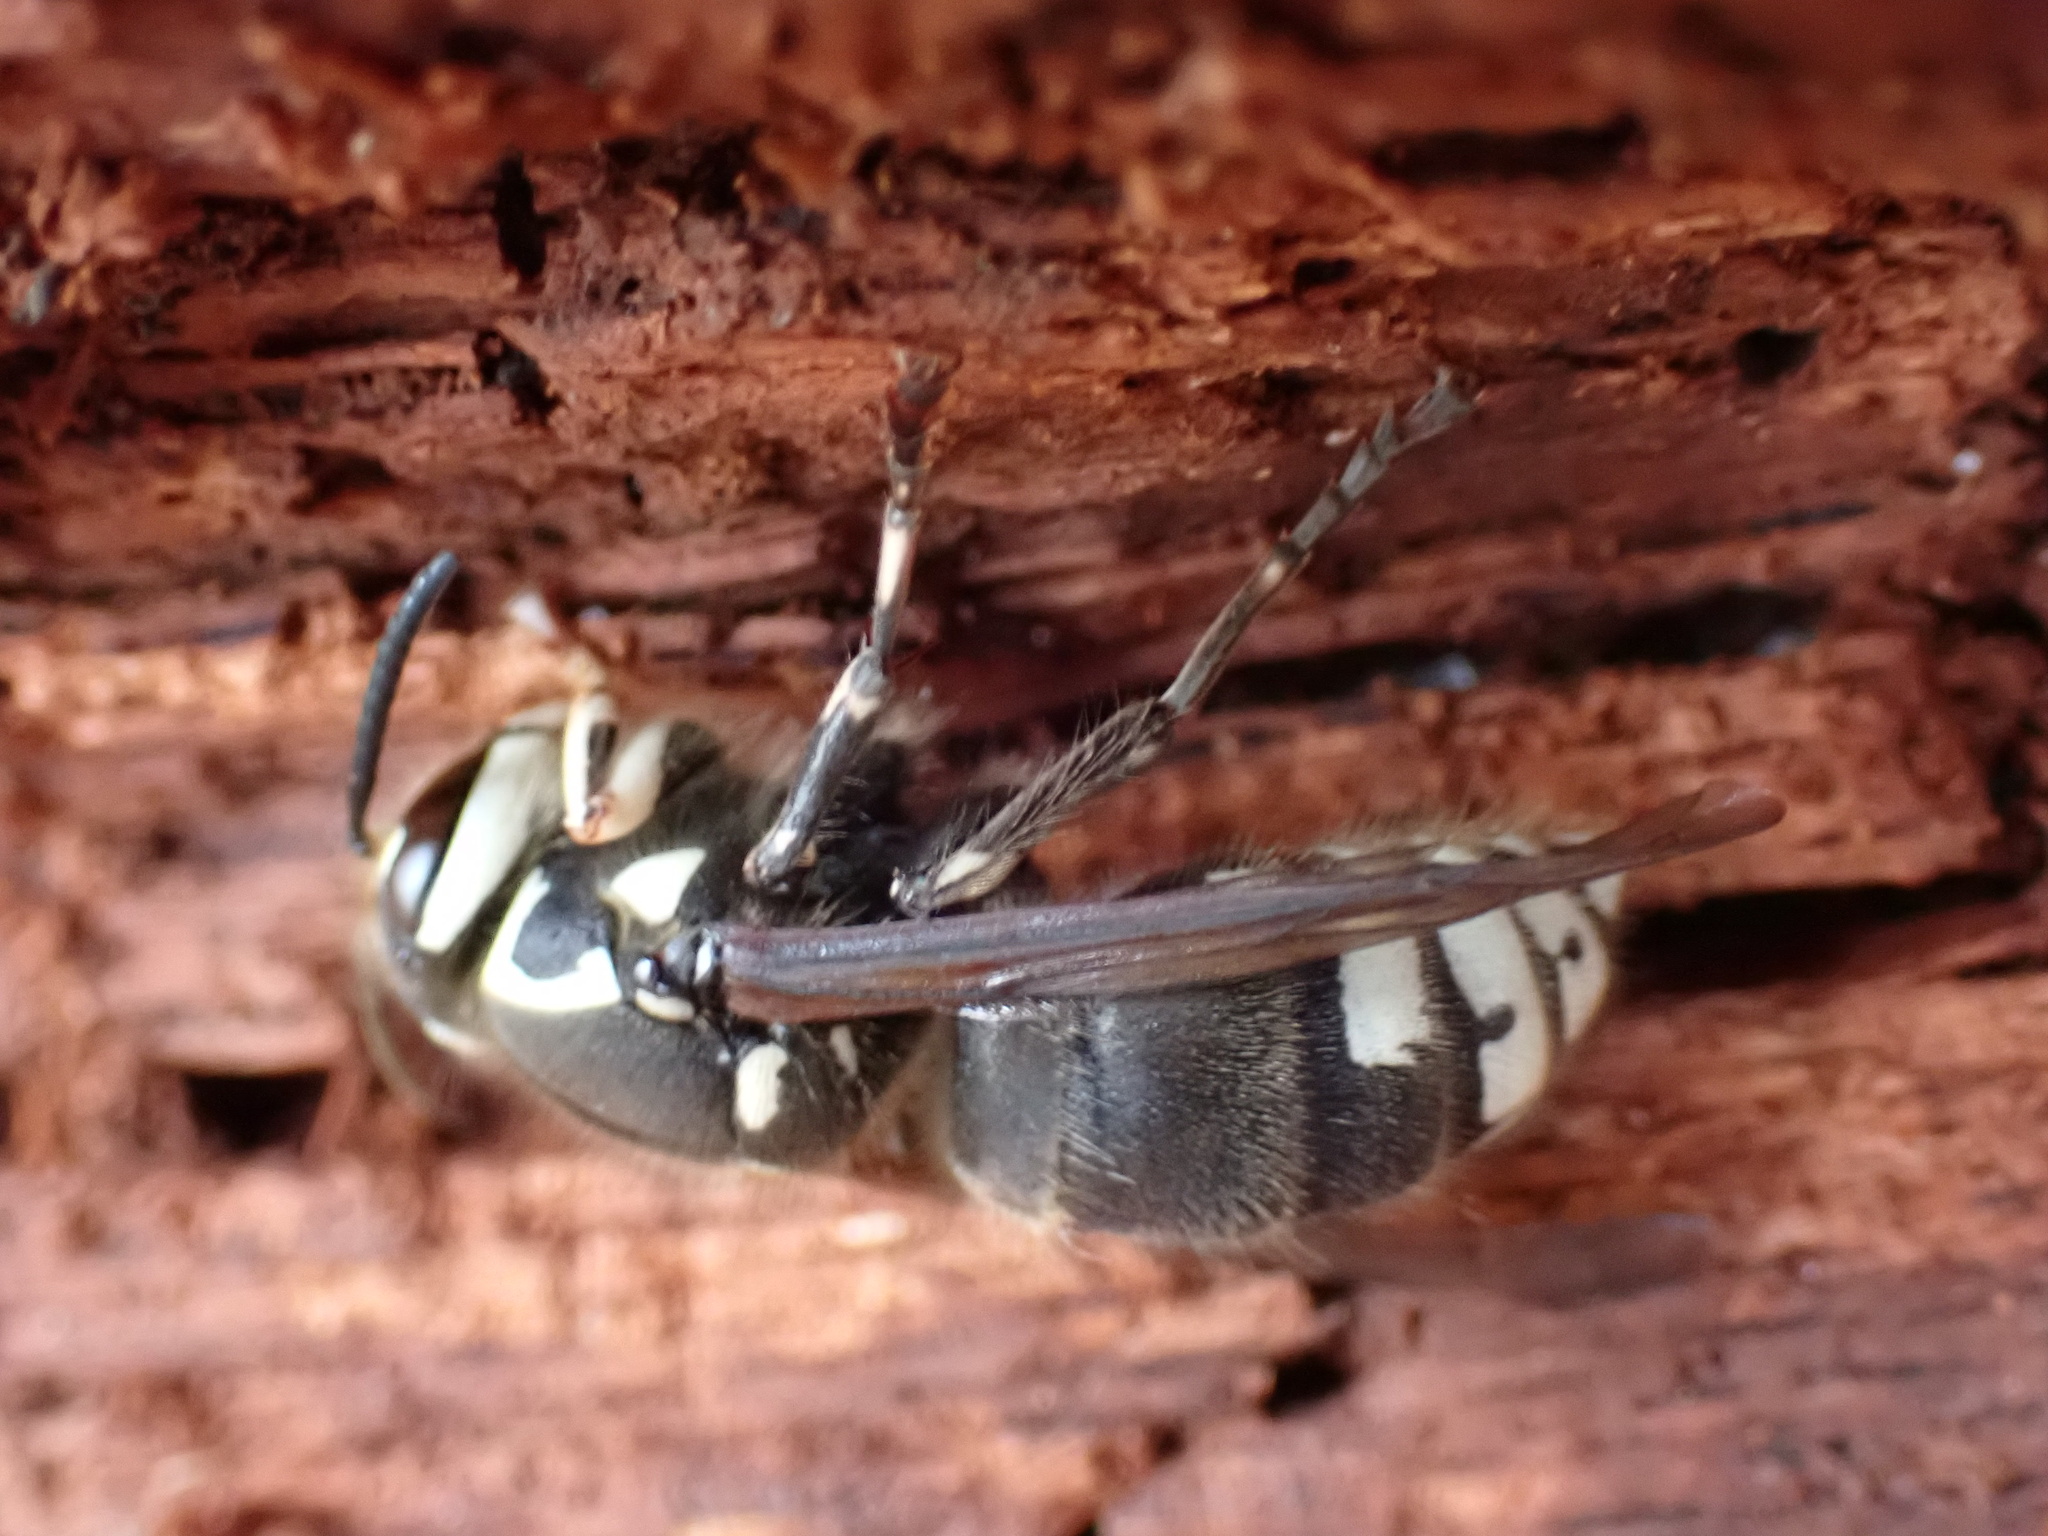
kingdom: Animalia
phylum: Arthropoda
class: Insecta
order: Hymenoptera
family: Vespidae
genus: Dolichovespula
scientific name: Dolichovespula maculata
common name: Bald-faced hornet
